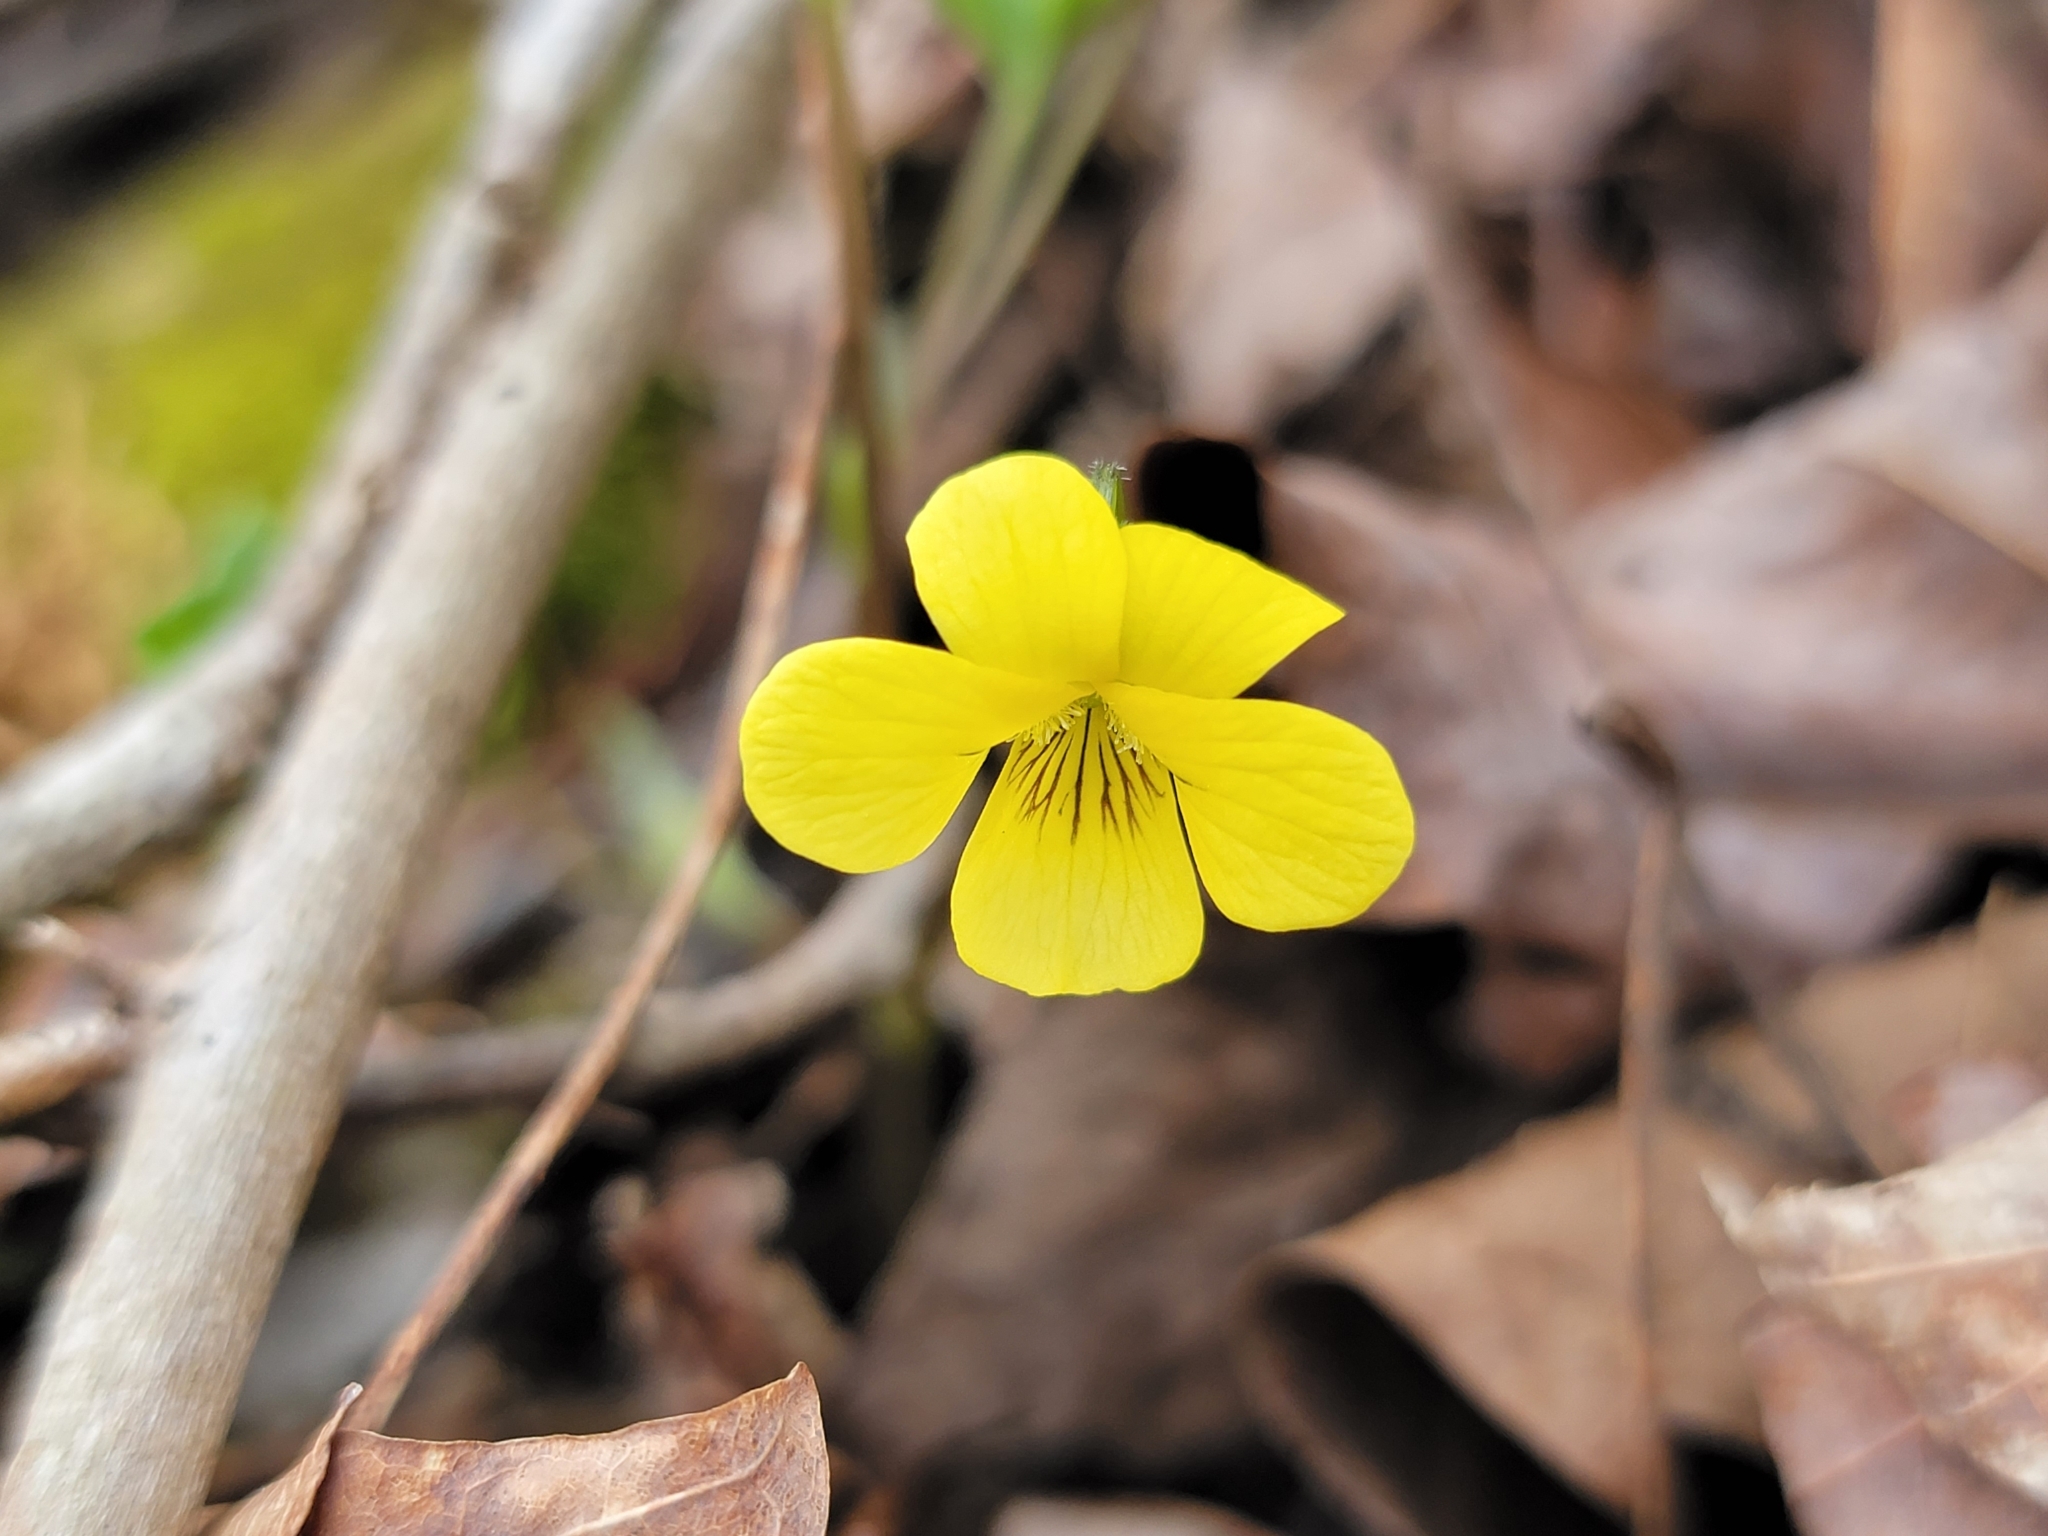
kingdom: Plantae
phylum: Tracheophyta
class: Magnoliopsida
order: Malpighiales
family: Violaceae
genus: Viola
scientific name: Viola eriocarpa
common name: Smooth yellow violet
